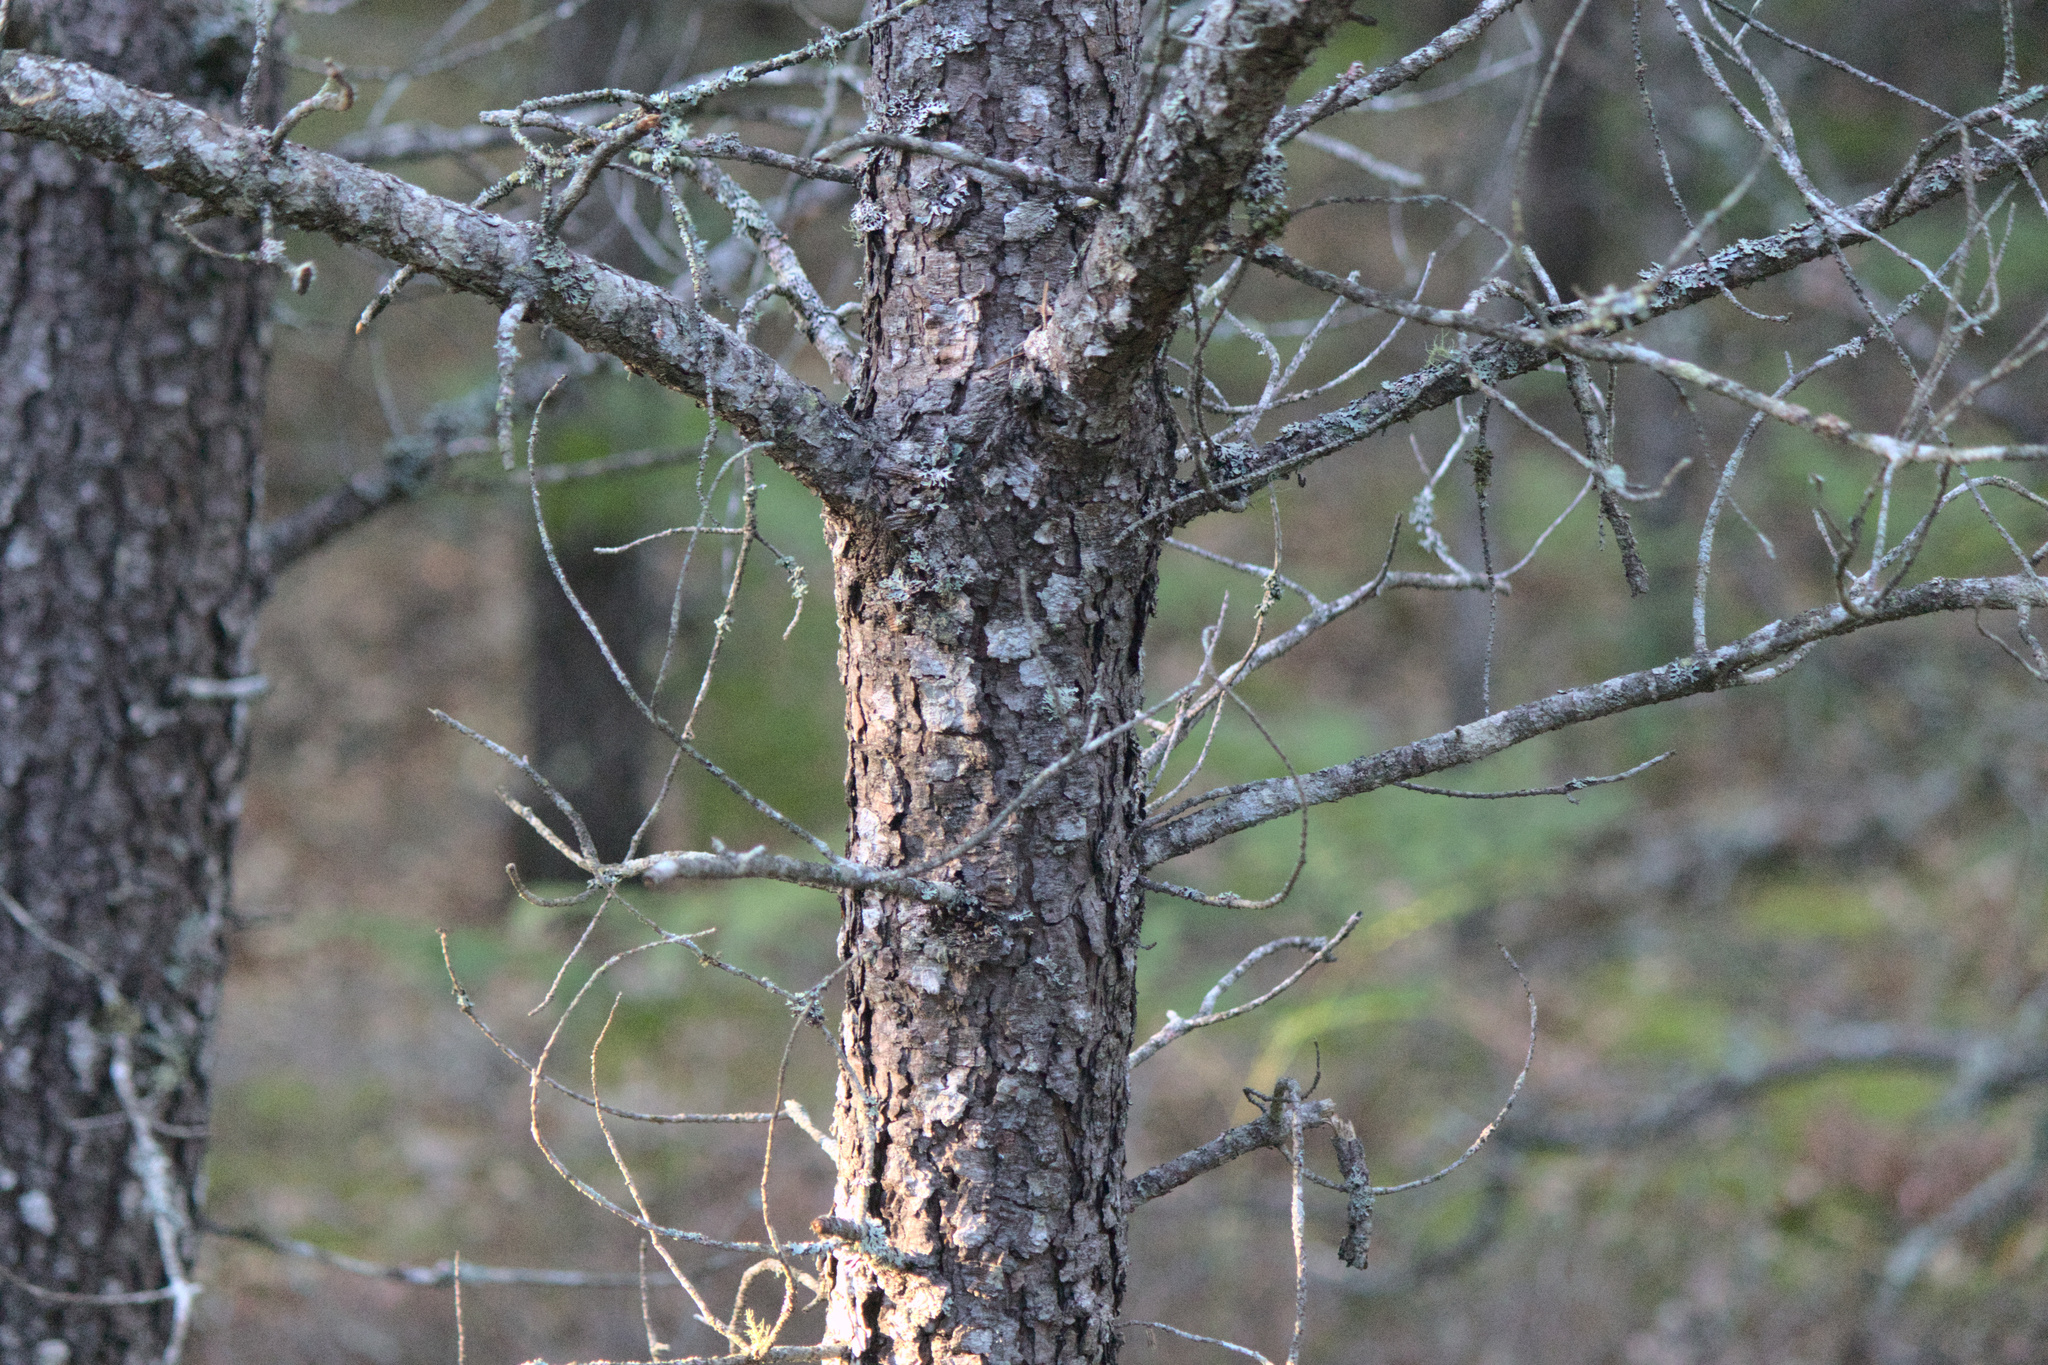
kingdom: Plantae
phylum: Tracheophyta
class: Pinopsida
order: Pinales
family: Pinaceae
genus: Pinus
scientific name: Pinus banksiana
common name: Jack pine
